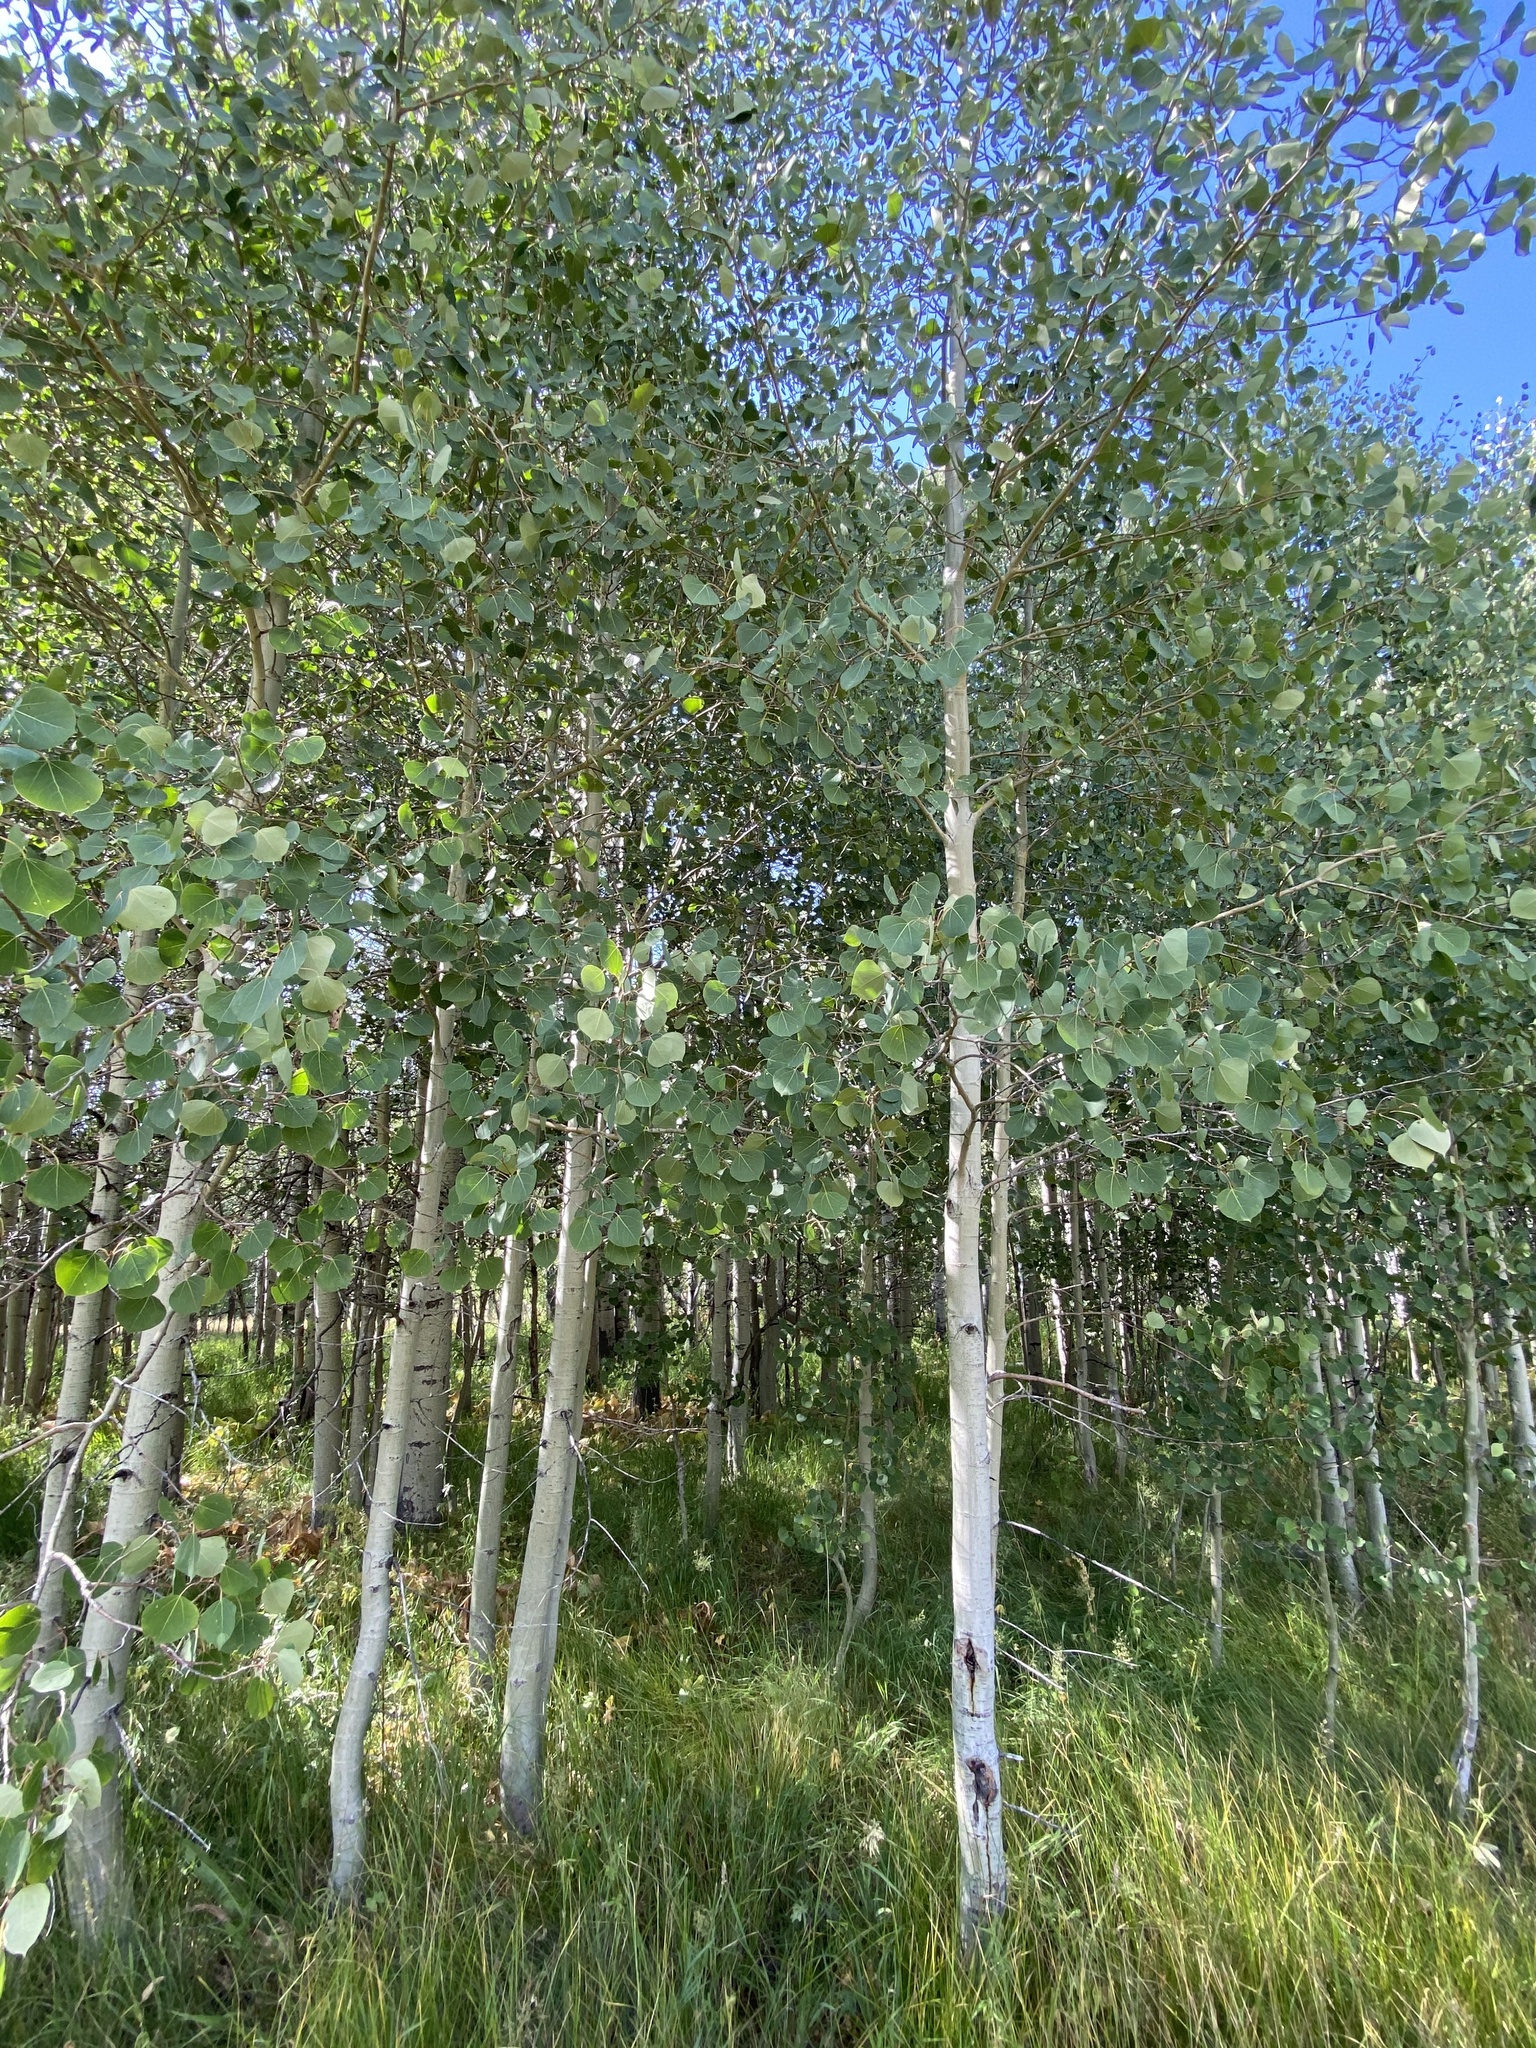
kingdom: Plantae
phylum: Tracheophyta
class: Magnoliopsida
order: Malpighiales
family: Salicaceae
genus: Populus
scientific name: Populus tremuloides
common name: Quaking aspen
